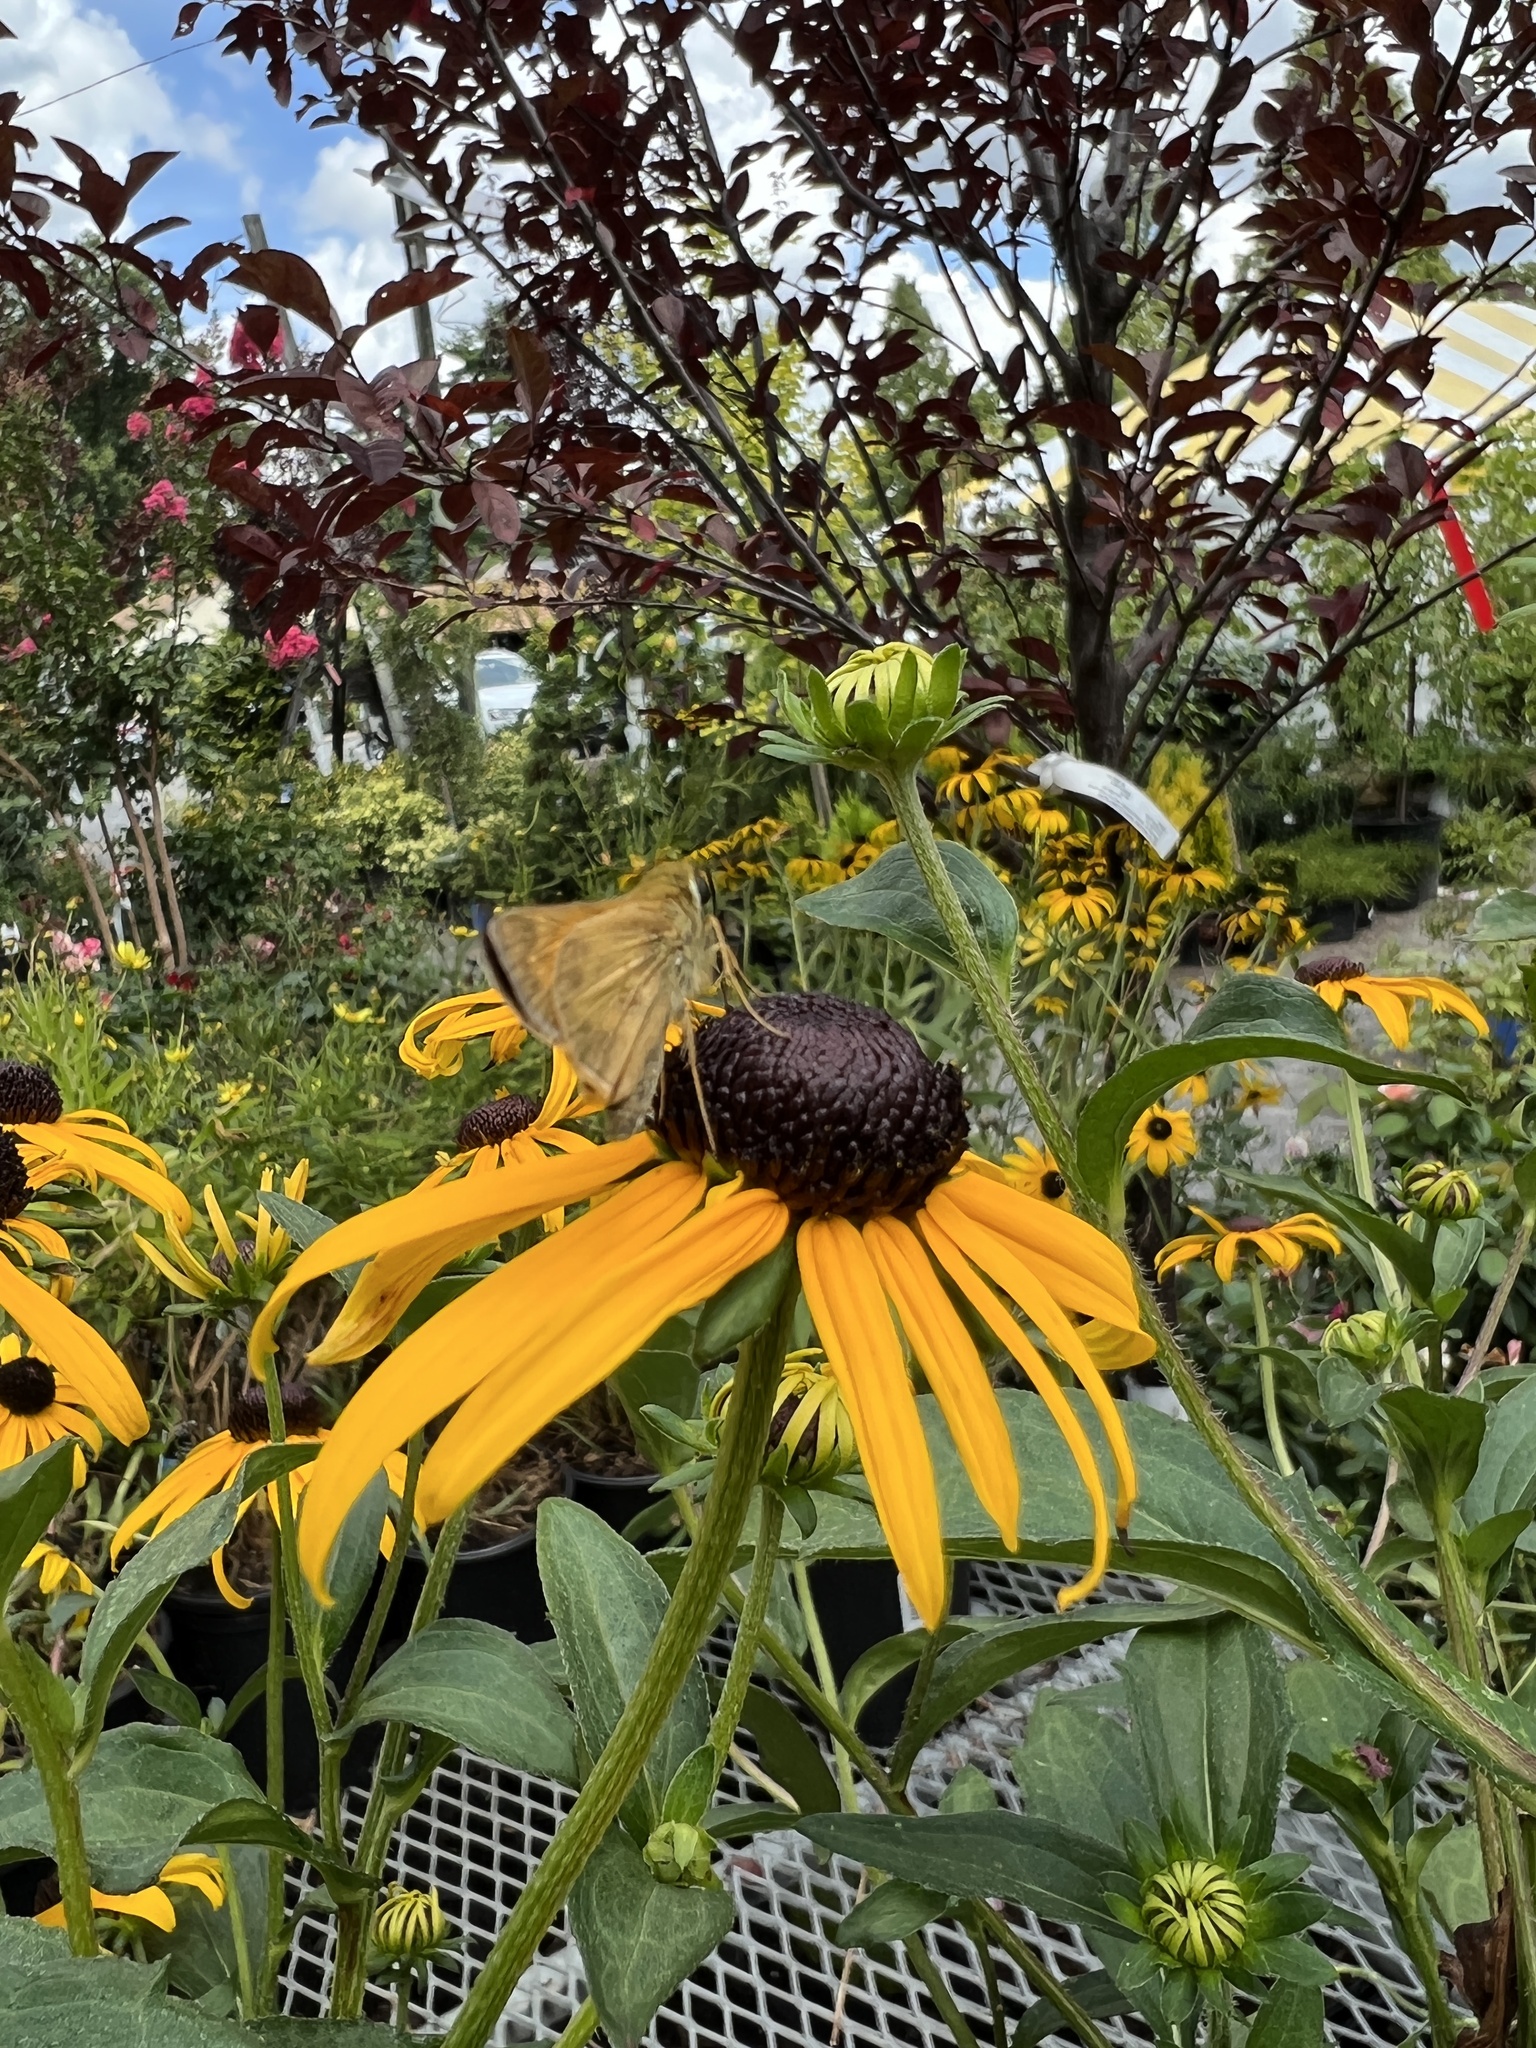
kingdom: Animalia
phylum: Arthropoda
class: Insecta
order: Lepidoptera
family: Hesperiidae
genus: Atalopedes
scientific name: Atalopedes
